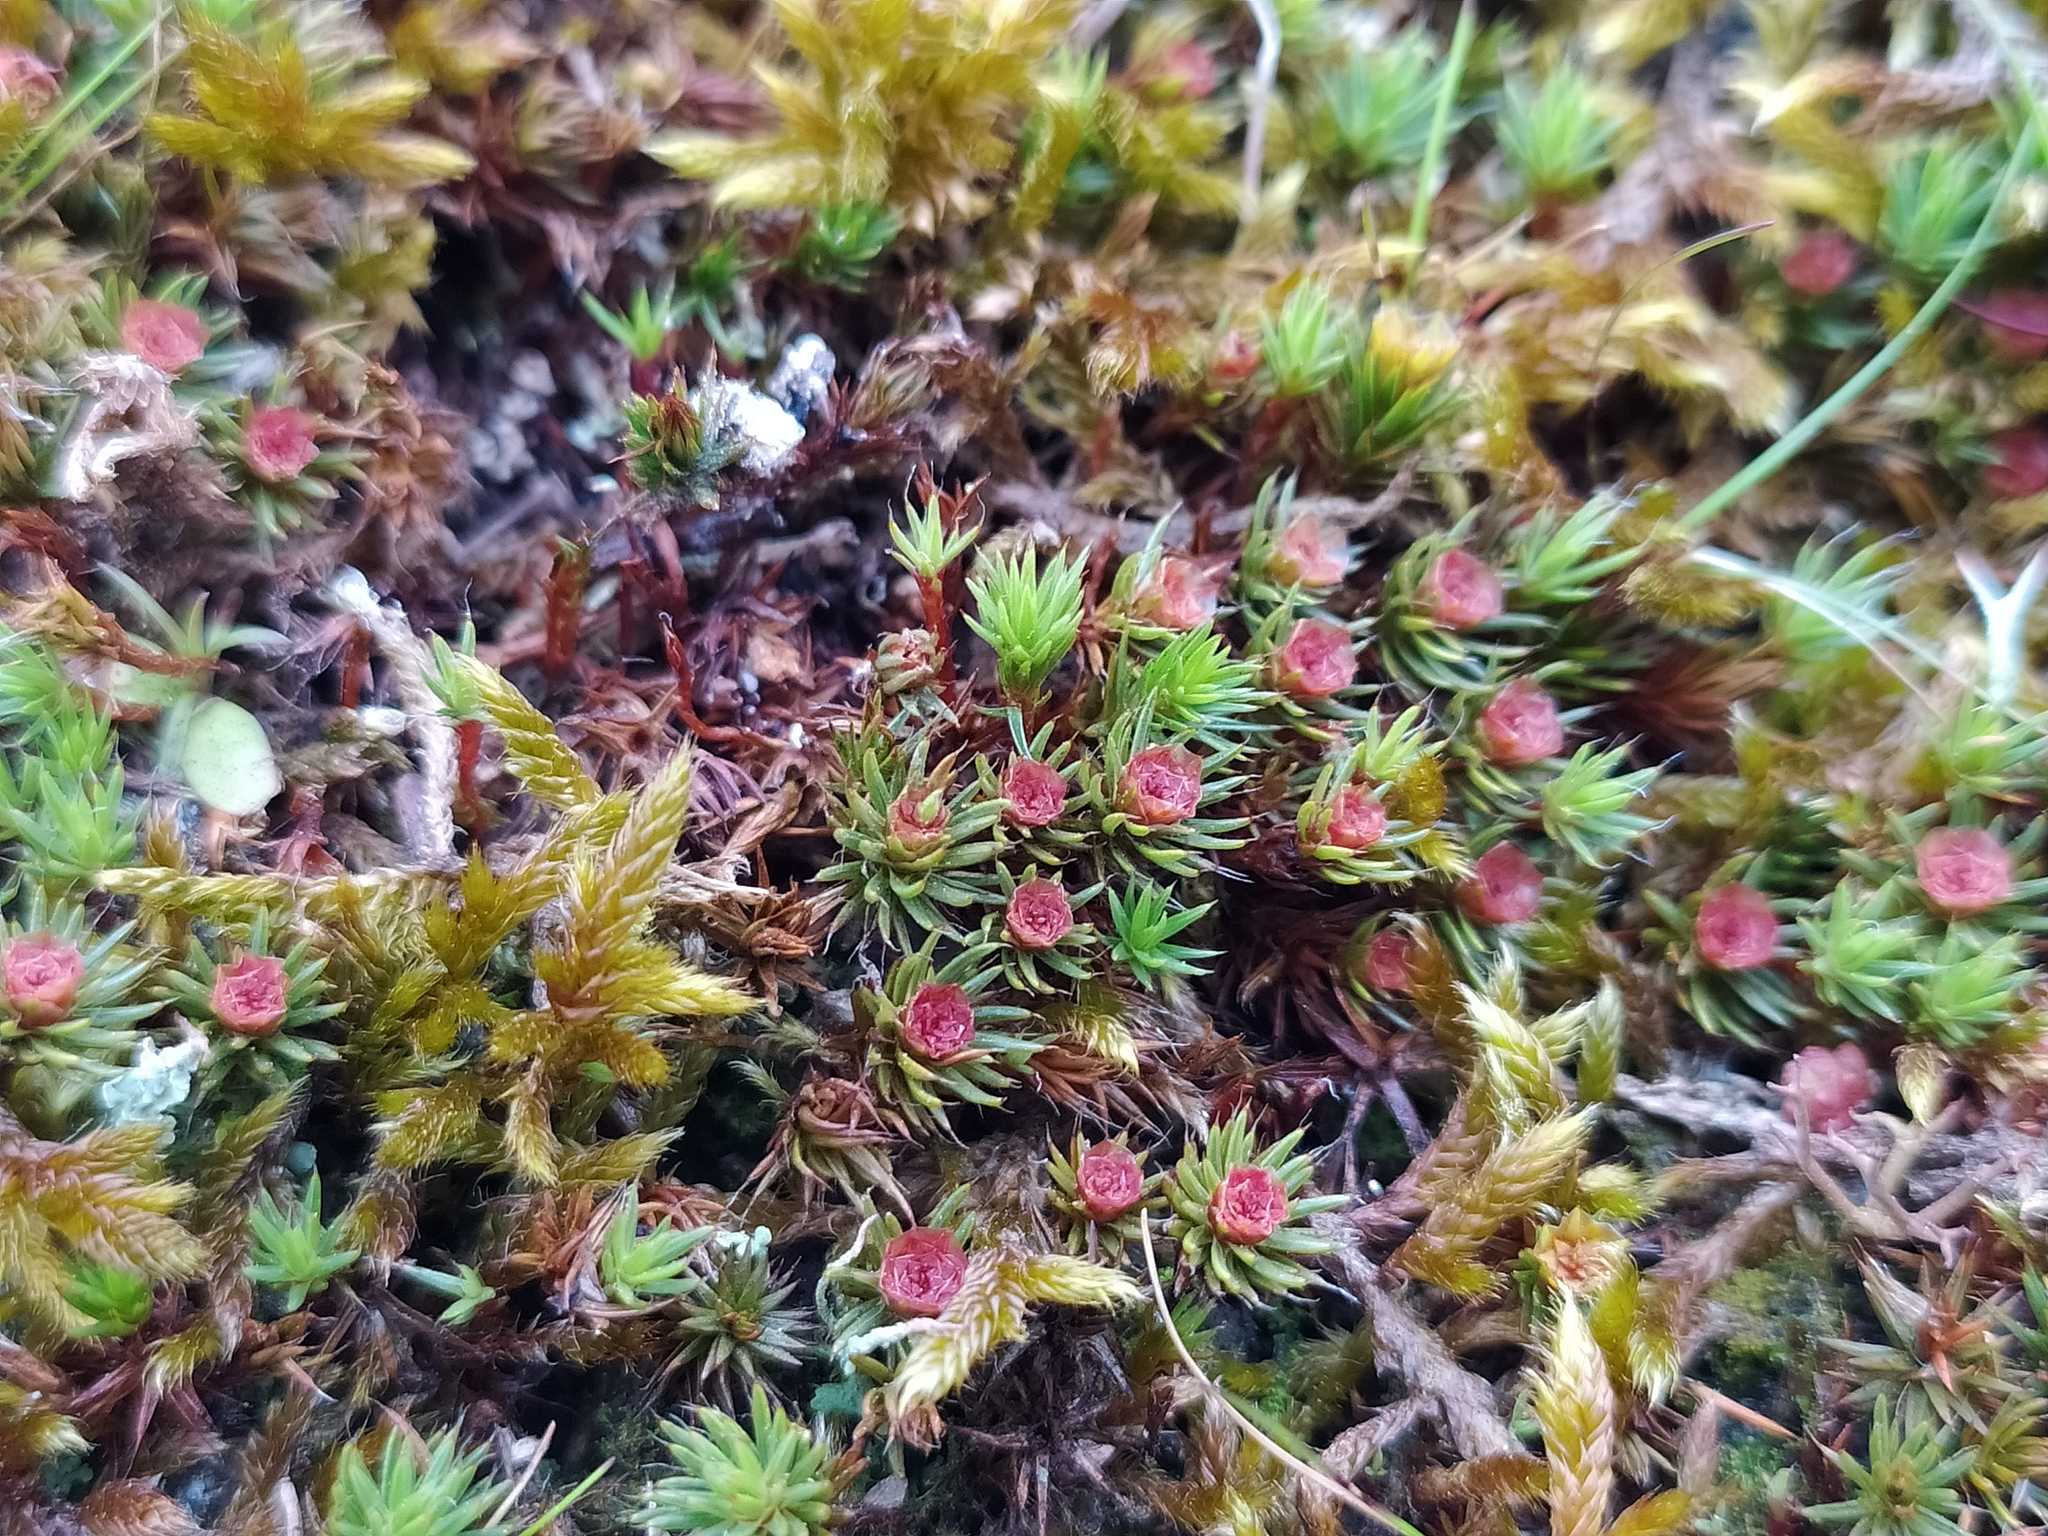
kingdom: Plantae
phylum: Bryophyta
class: Polytrichopsida
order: Polytrichales
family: Polytrichaceae
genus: Polytrichum
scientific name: Polytrichum piliferum
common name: Bristly haircap
